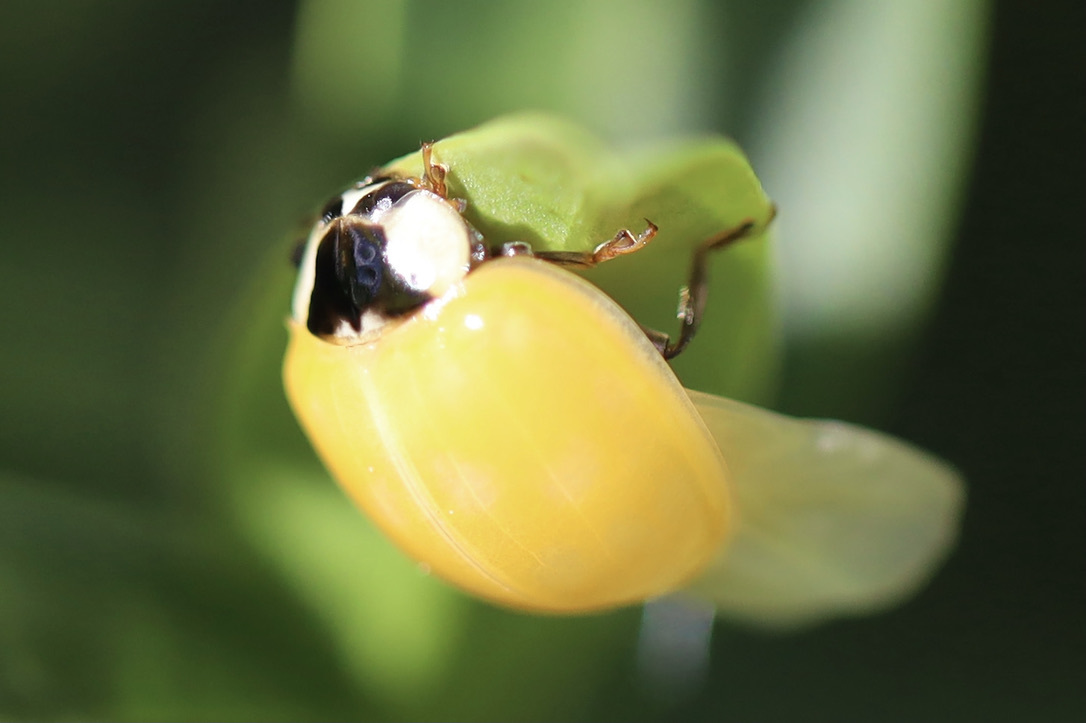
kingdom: Animalia
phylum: Arthropoda
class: Insecta
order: Coleoptera
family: Coccinellidae
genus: Harmonia
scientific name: Harmonia axyridis
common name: Harlequin ladybird
